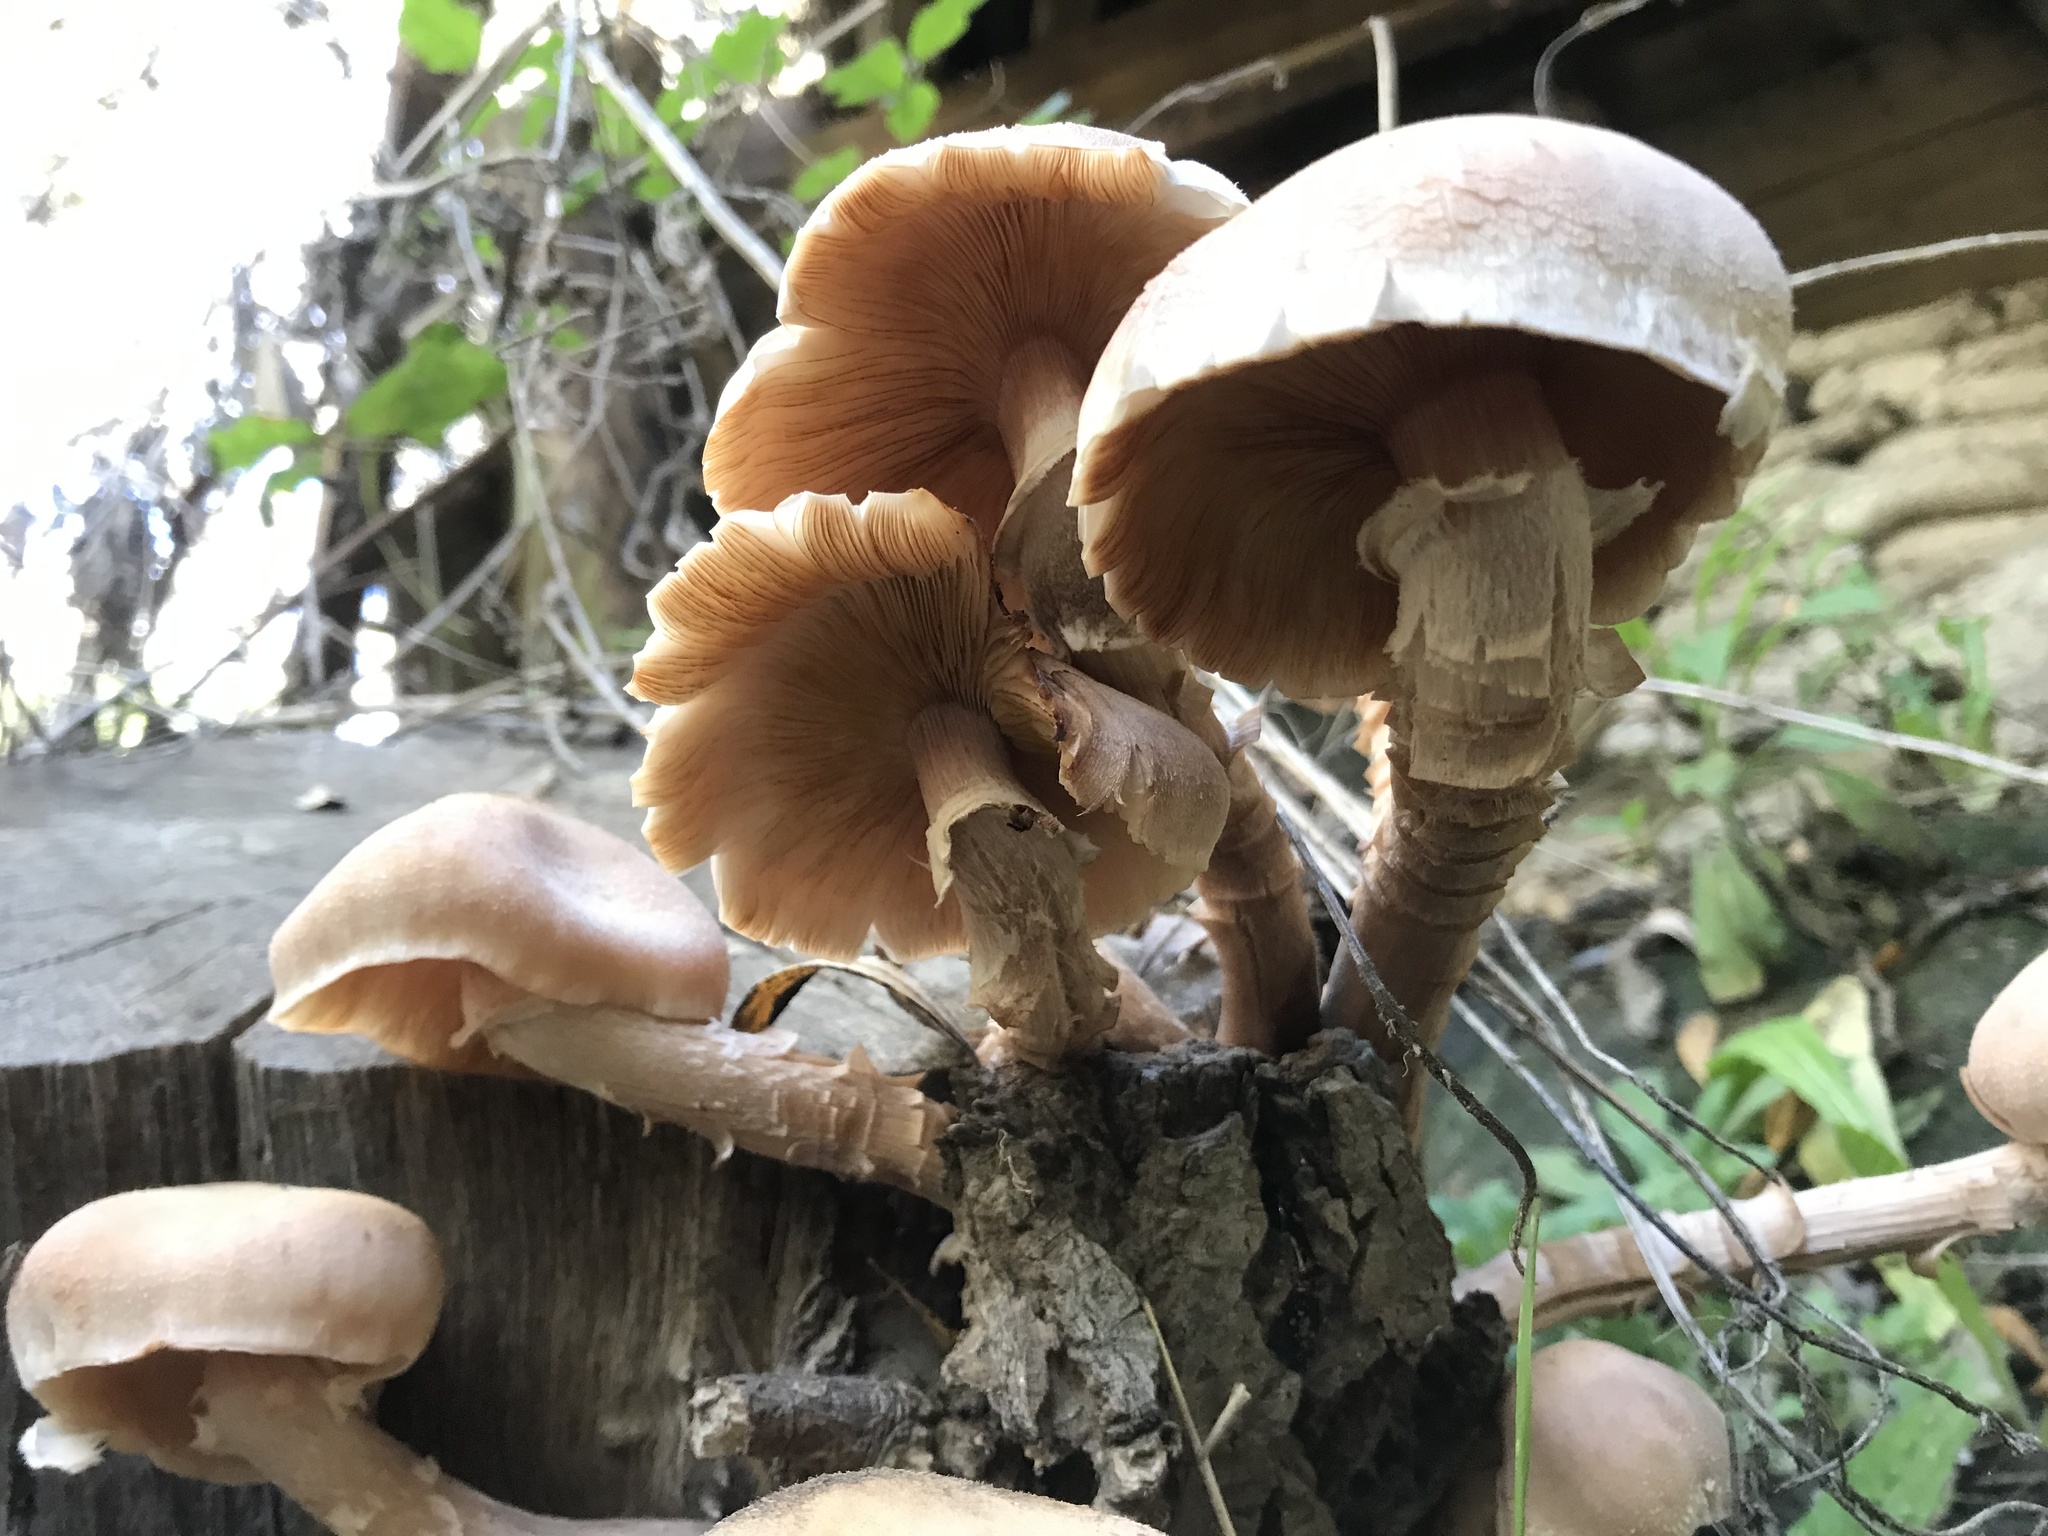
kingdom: Fungi
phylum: Basidiomycota
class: Agaricomycetes
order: Agaricales
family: Physalacriaceae
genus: Armillaria
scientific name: Armillaria mellea
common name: Honey fungus
